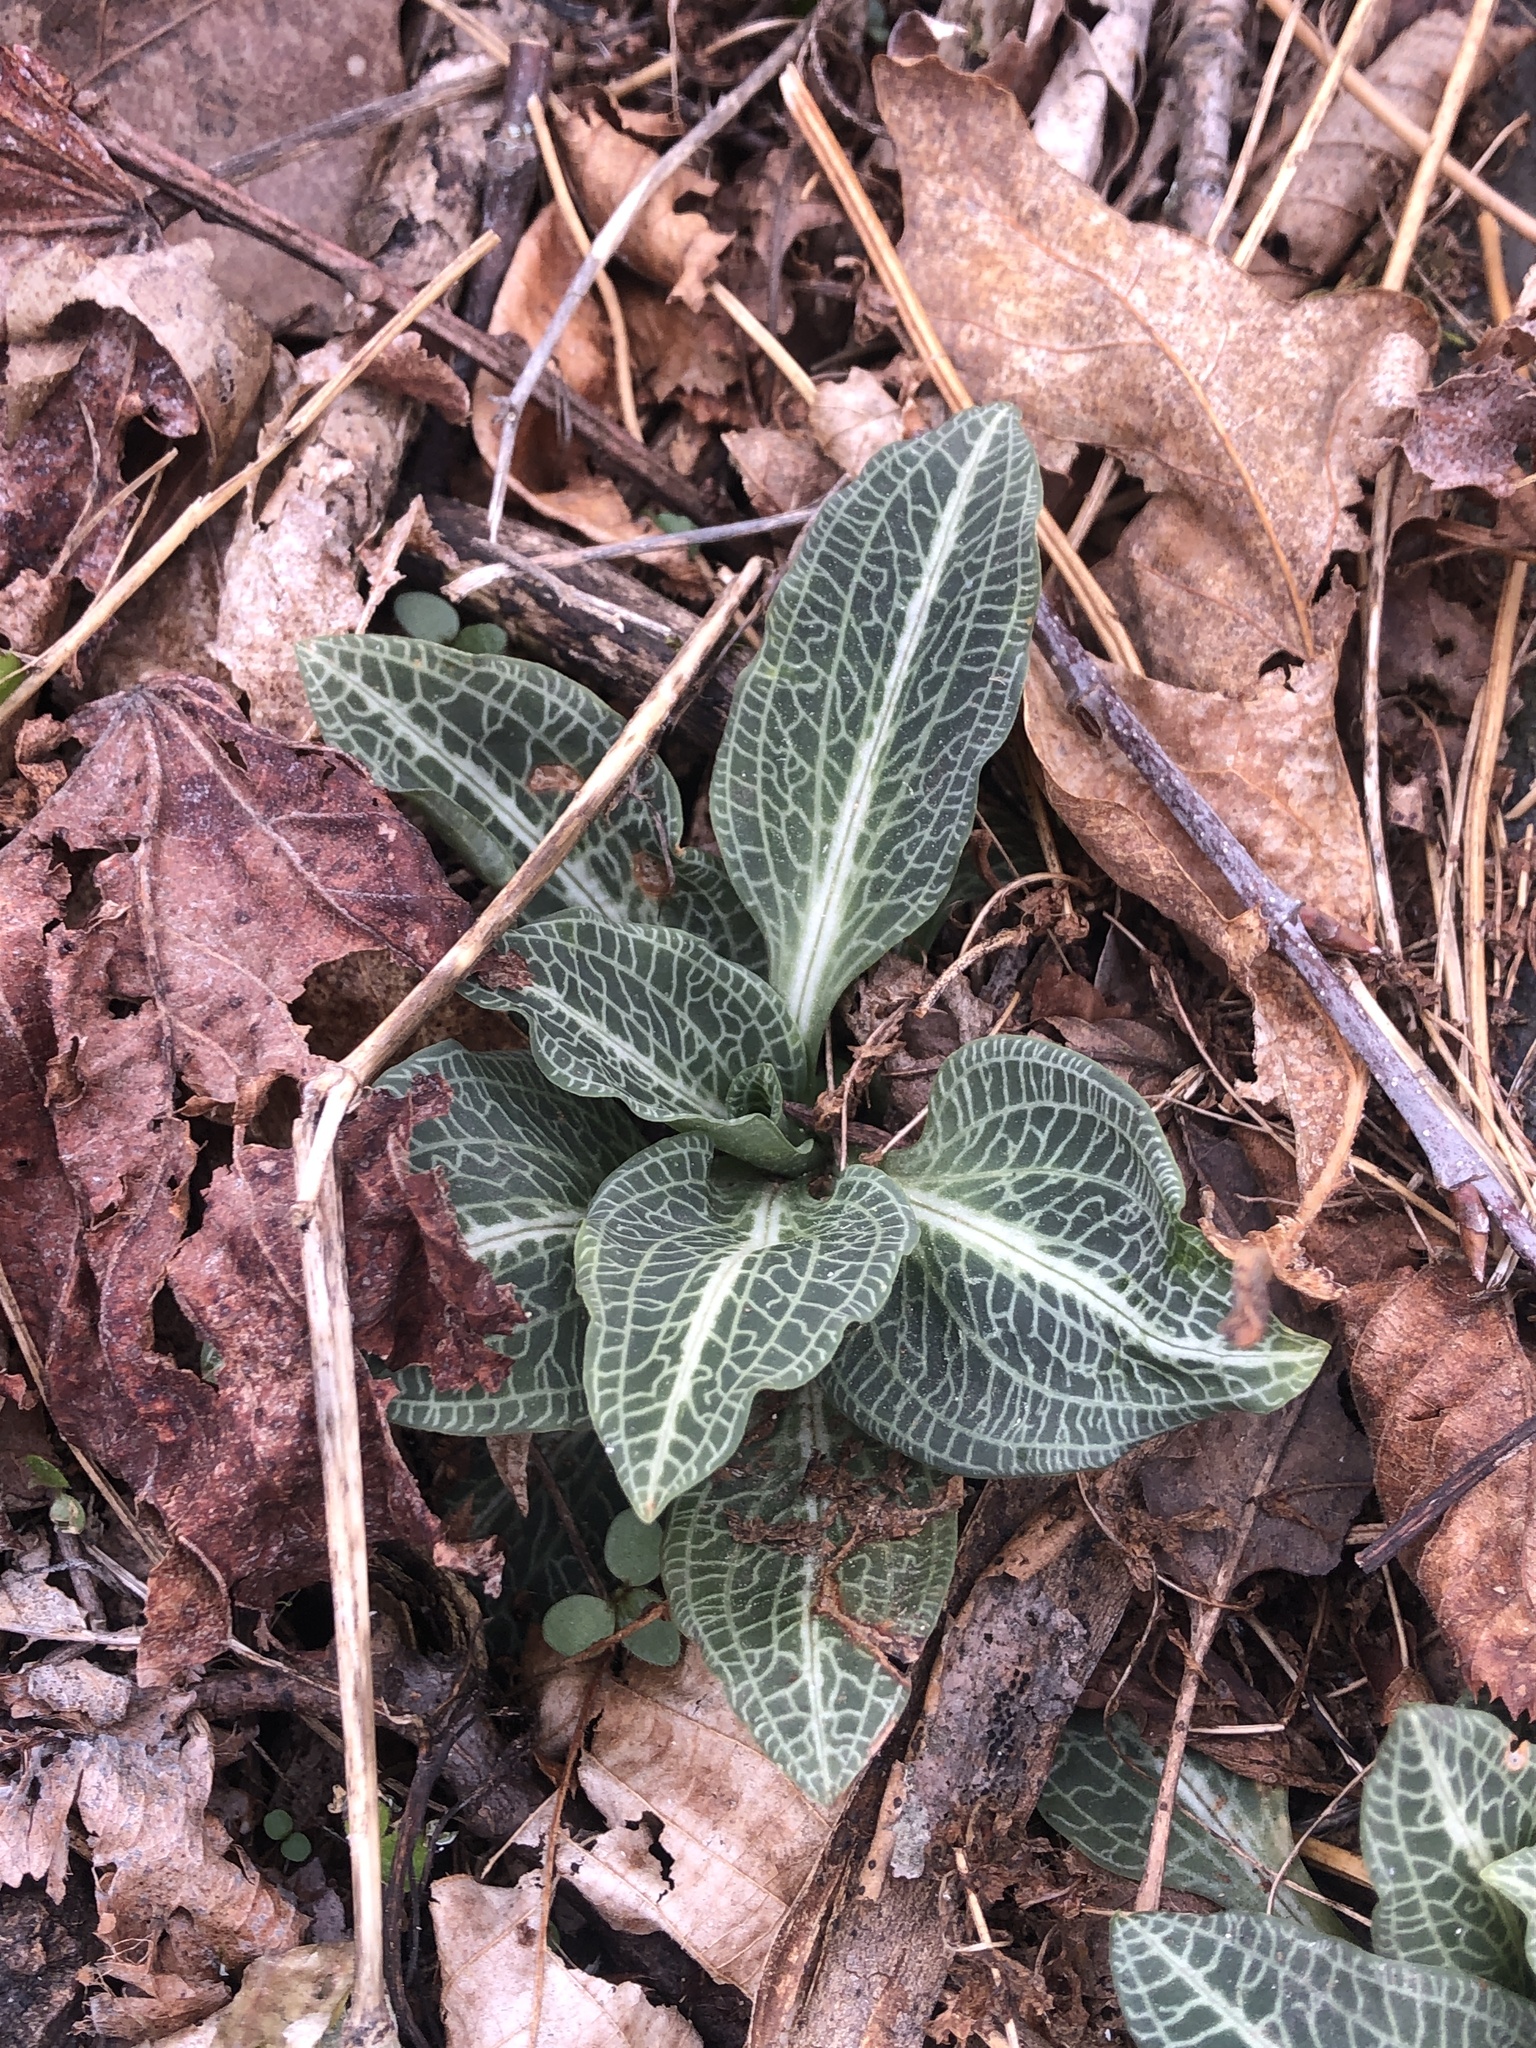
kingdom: Plantae
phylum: Tracheophyta
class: Liliopsida
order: Asparagales
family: Orchidaceae
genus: Goodyera
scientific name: Goodyera pubescens
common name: Downy rattlesnake-plantain
